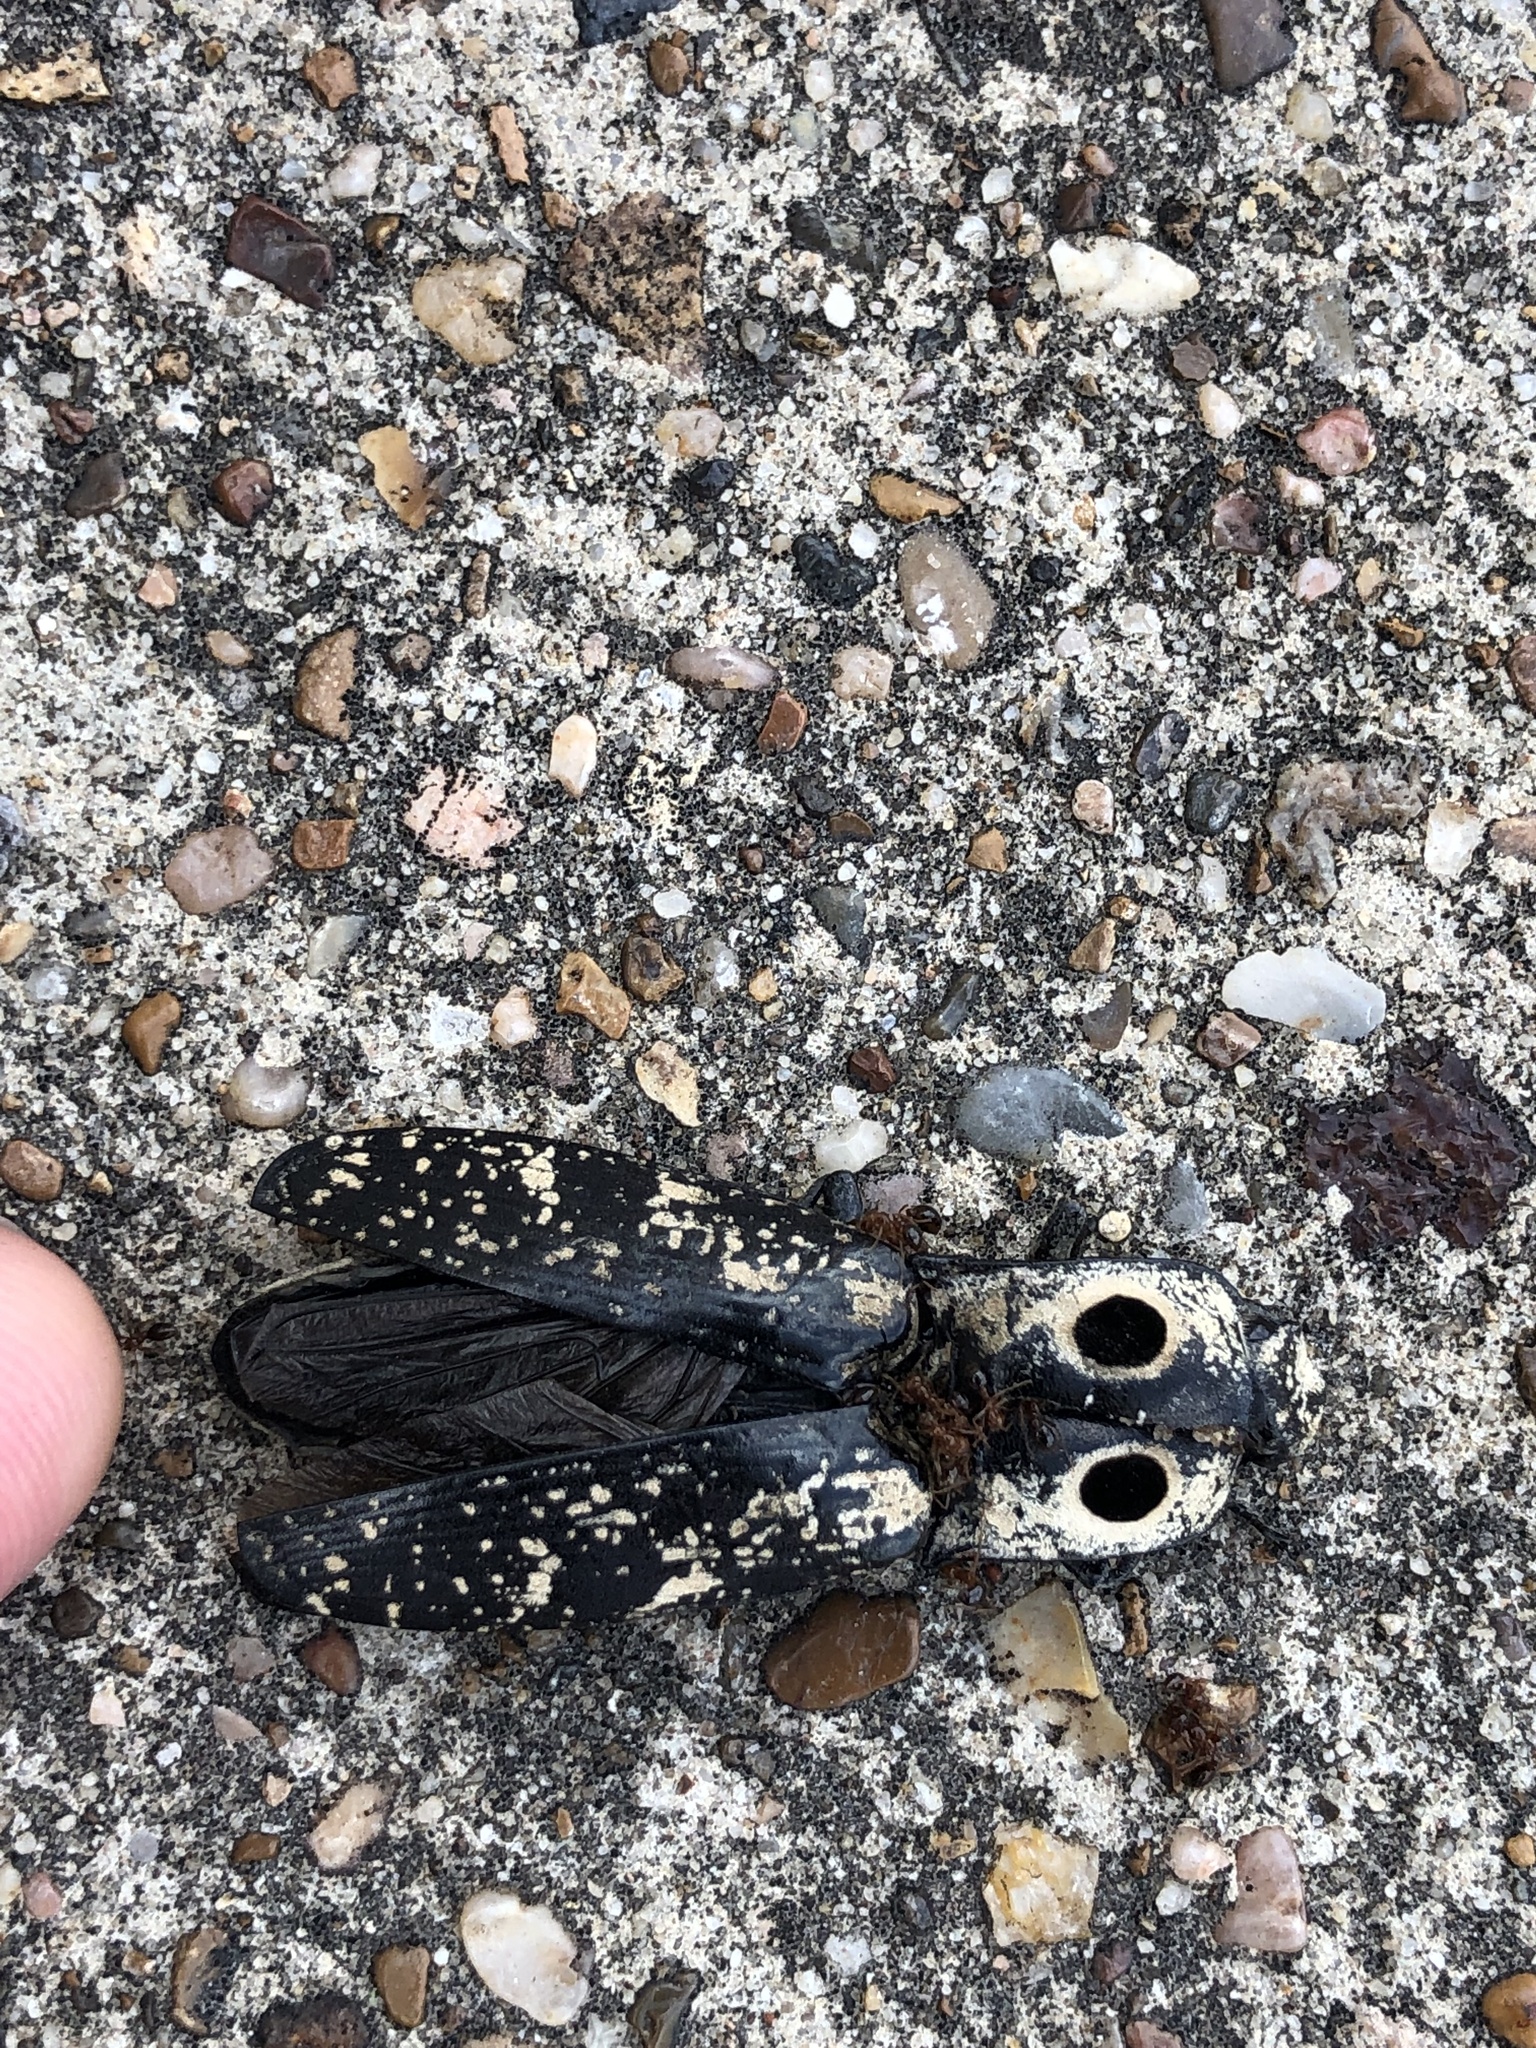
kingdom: Animalia
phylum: Arthropoda
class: Insecta
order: Coleoptera
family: Elateridae
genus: Alaus
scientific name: Alaus
